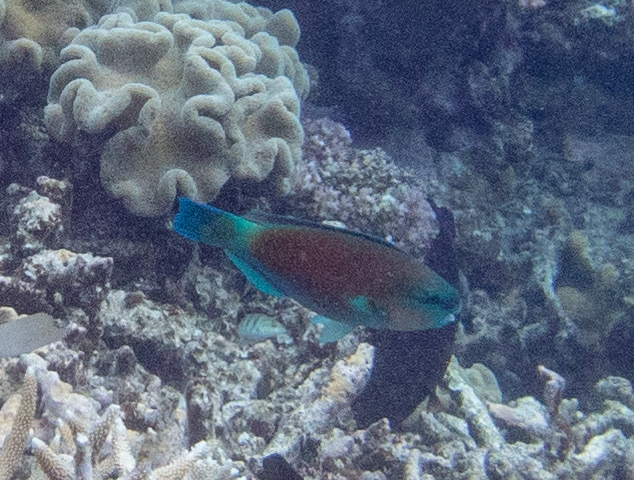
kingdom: Animalia
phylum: Chordata
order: Perciformes
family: Scaridae
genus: Chlorurus
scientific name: Chlorurus spilurus
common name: Bullethead parrotfish
